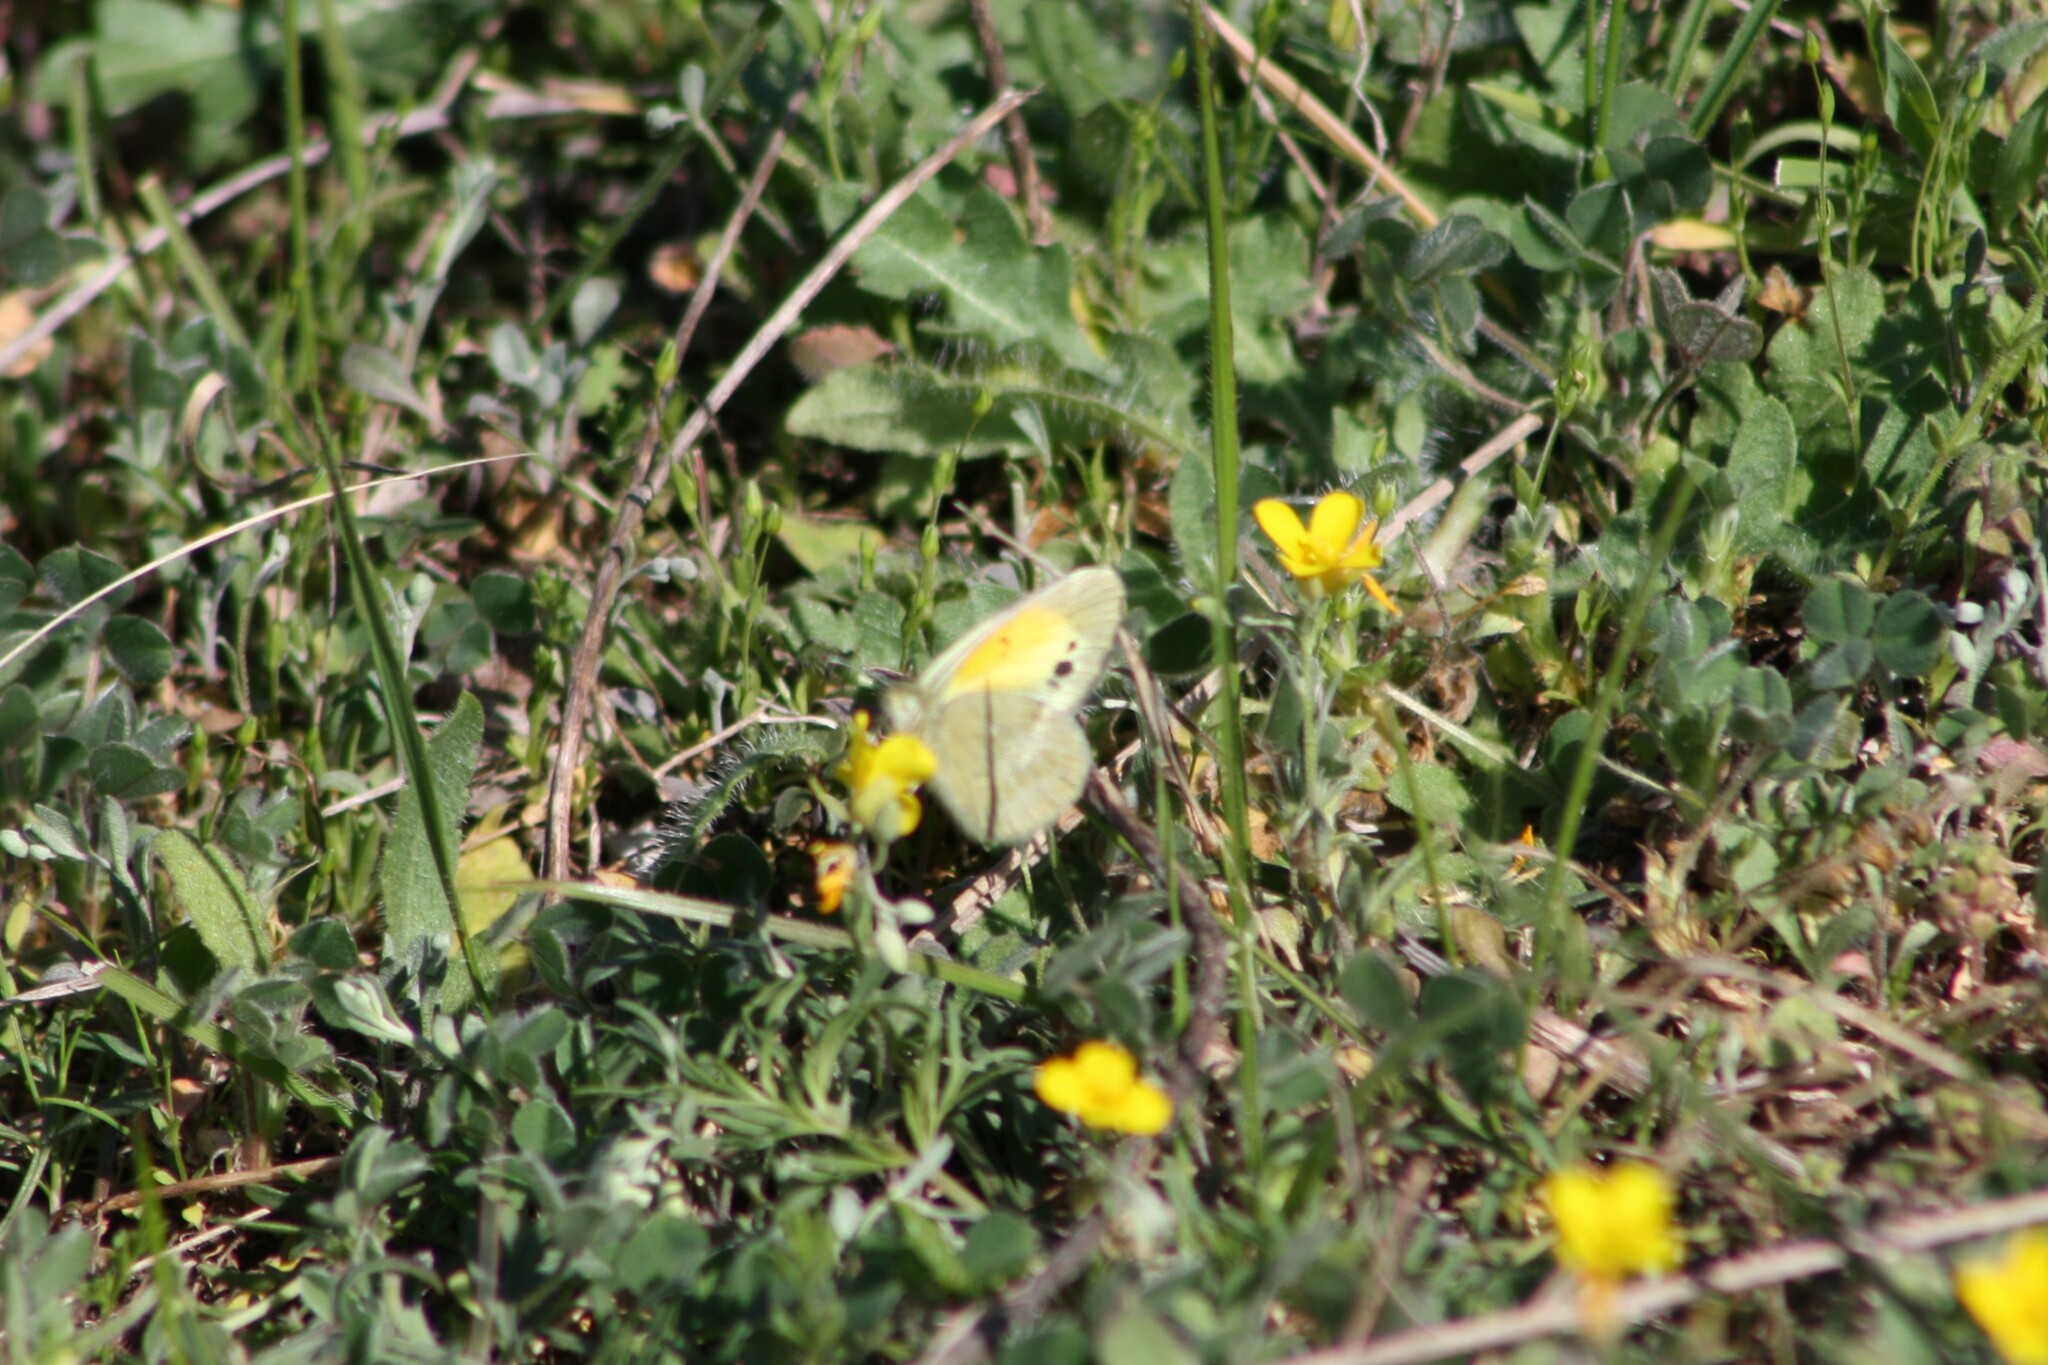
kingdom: Animalia
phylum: Arthropoda
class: Insecta
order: Lepidoptera
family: Pieridae
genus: Nathalis
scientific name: Nathalis iole
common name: Dainty sulphur
